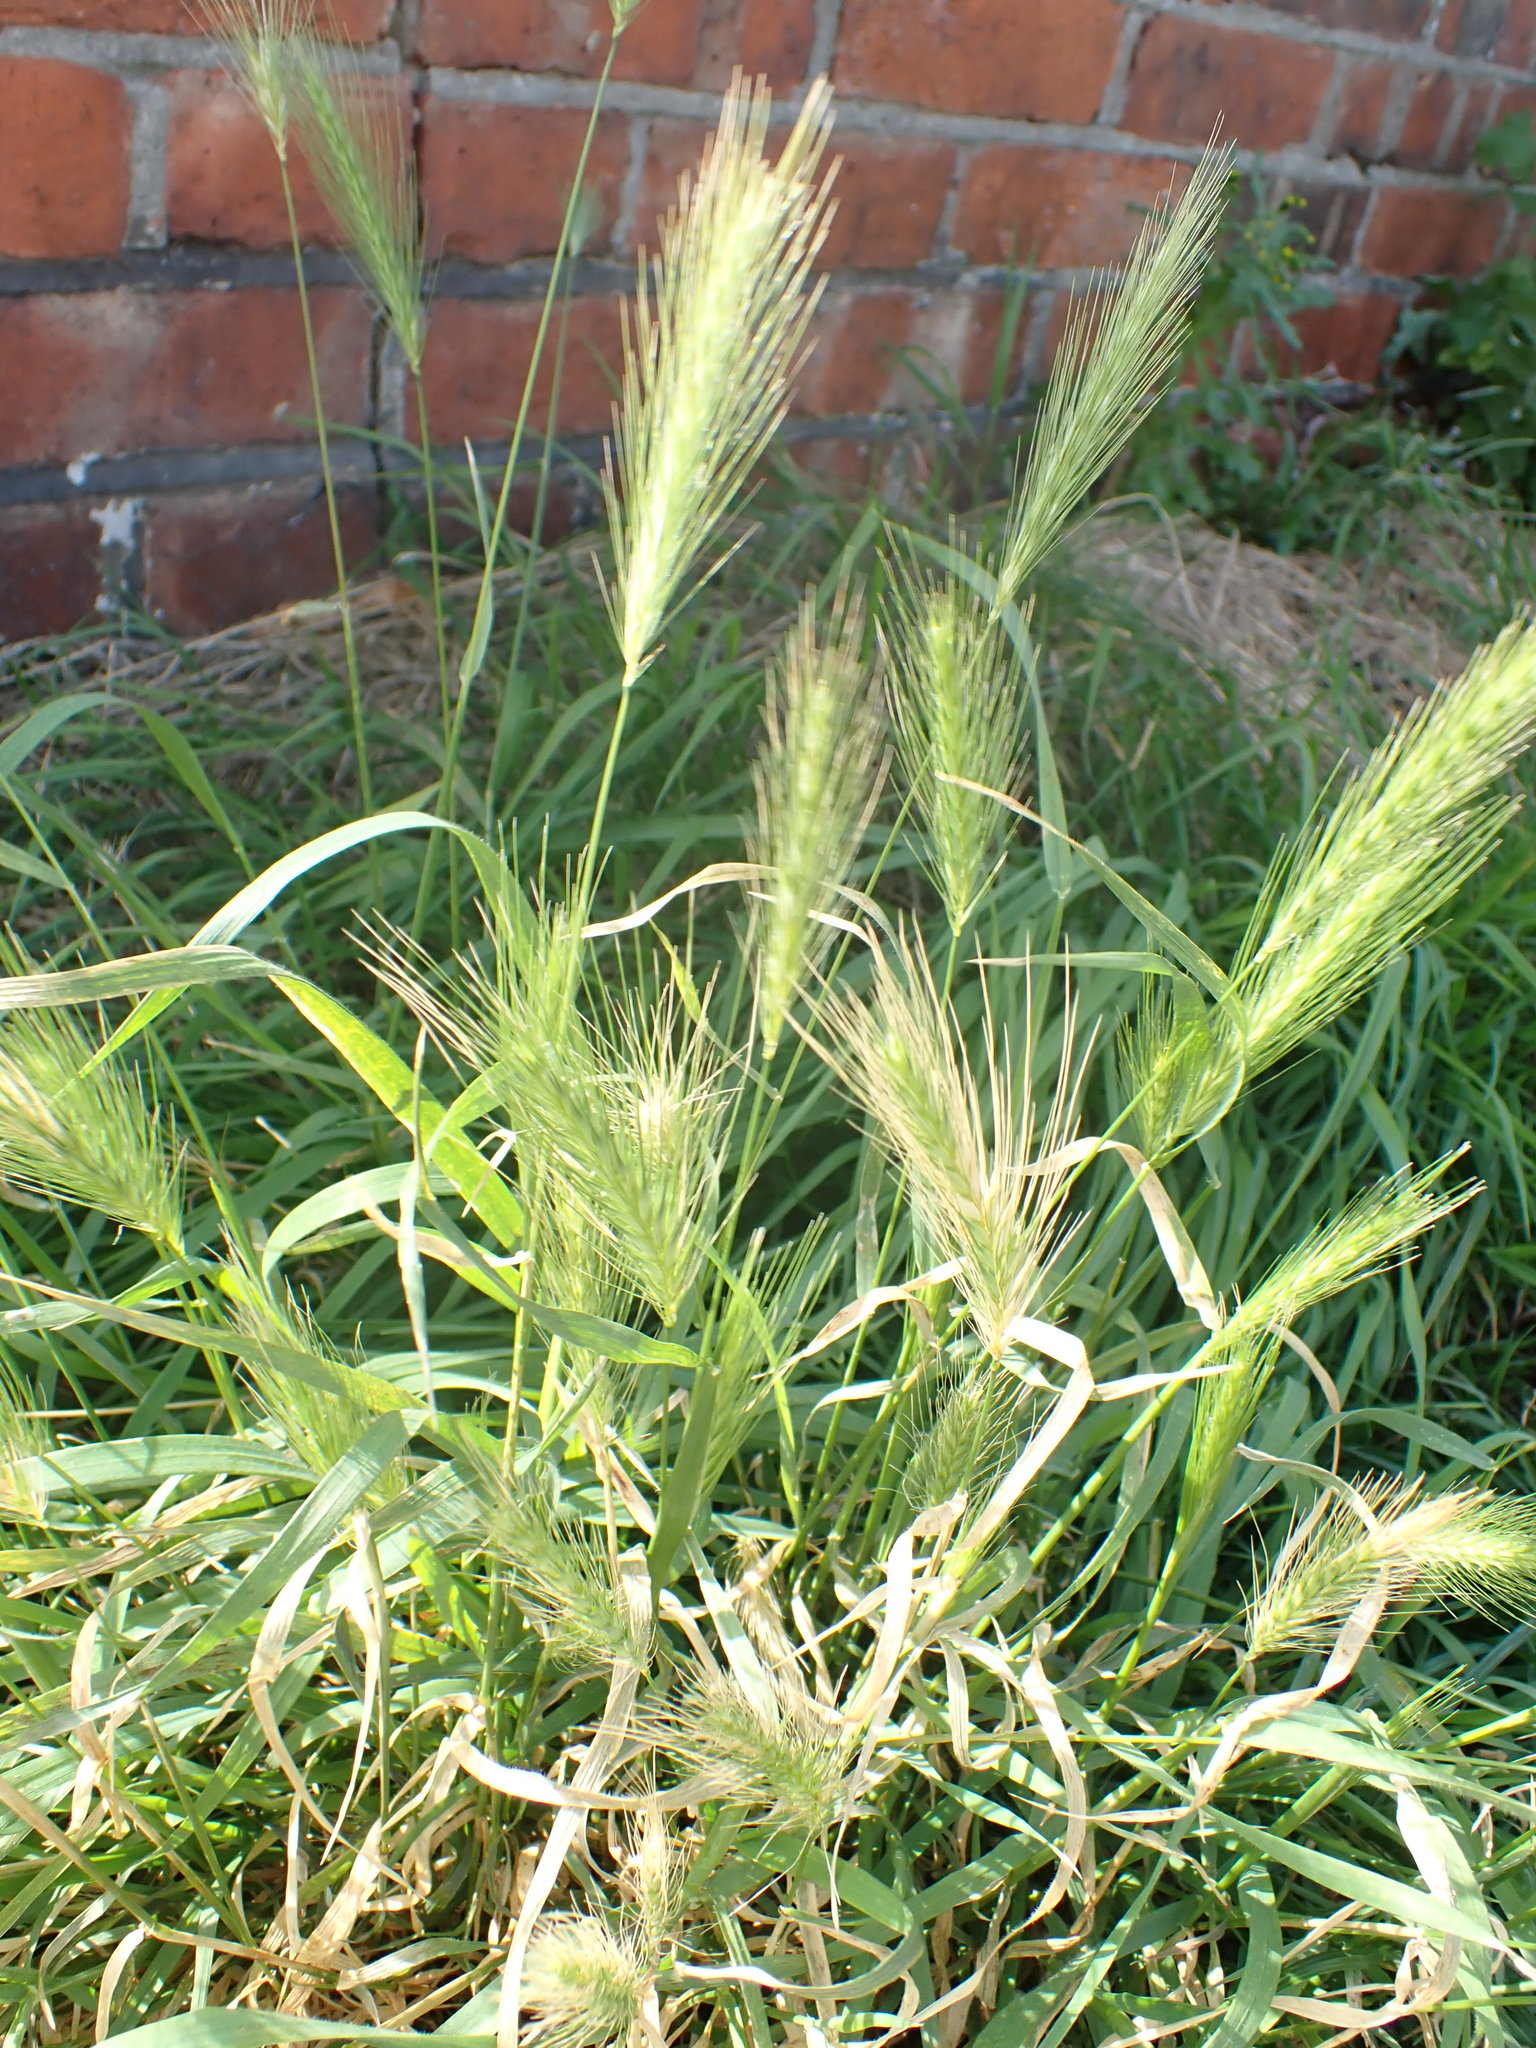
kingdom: Plantae
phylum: Tracheophyta
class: Liliopsida
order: Poales
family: Poaceae
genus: Hordeum
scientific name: Hordeum murinum
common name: Wall barley
